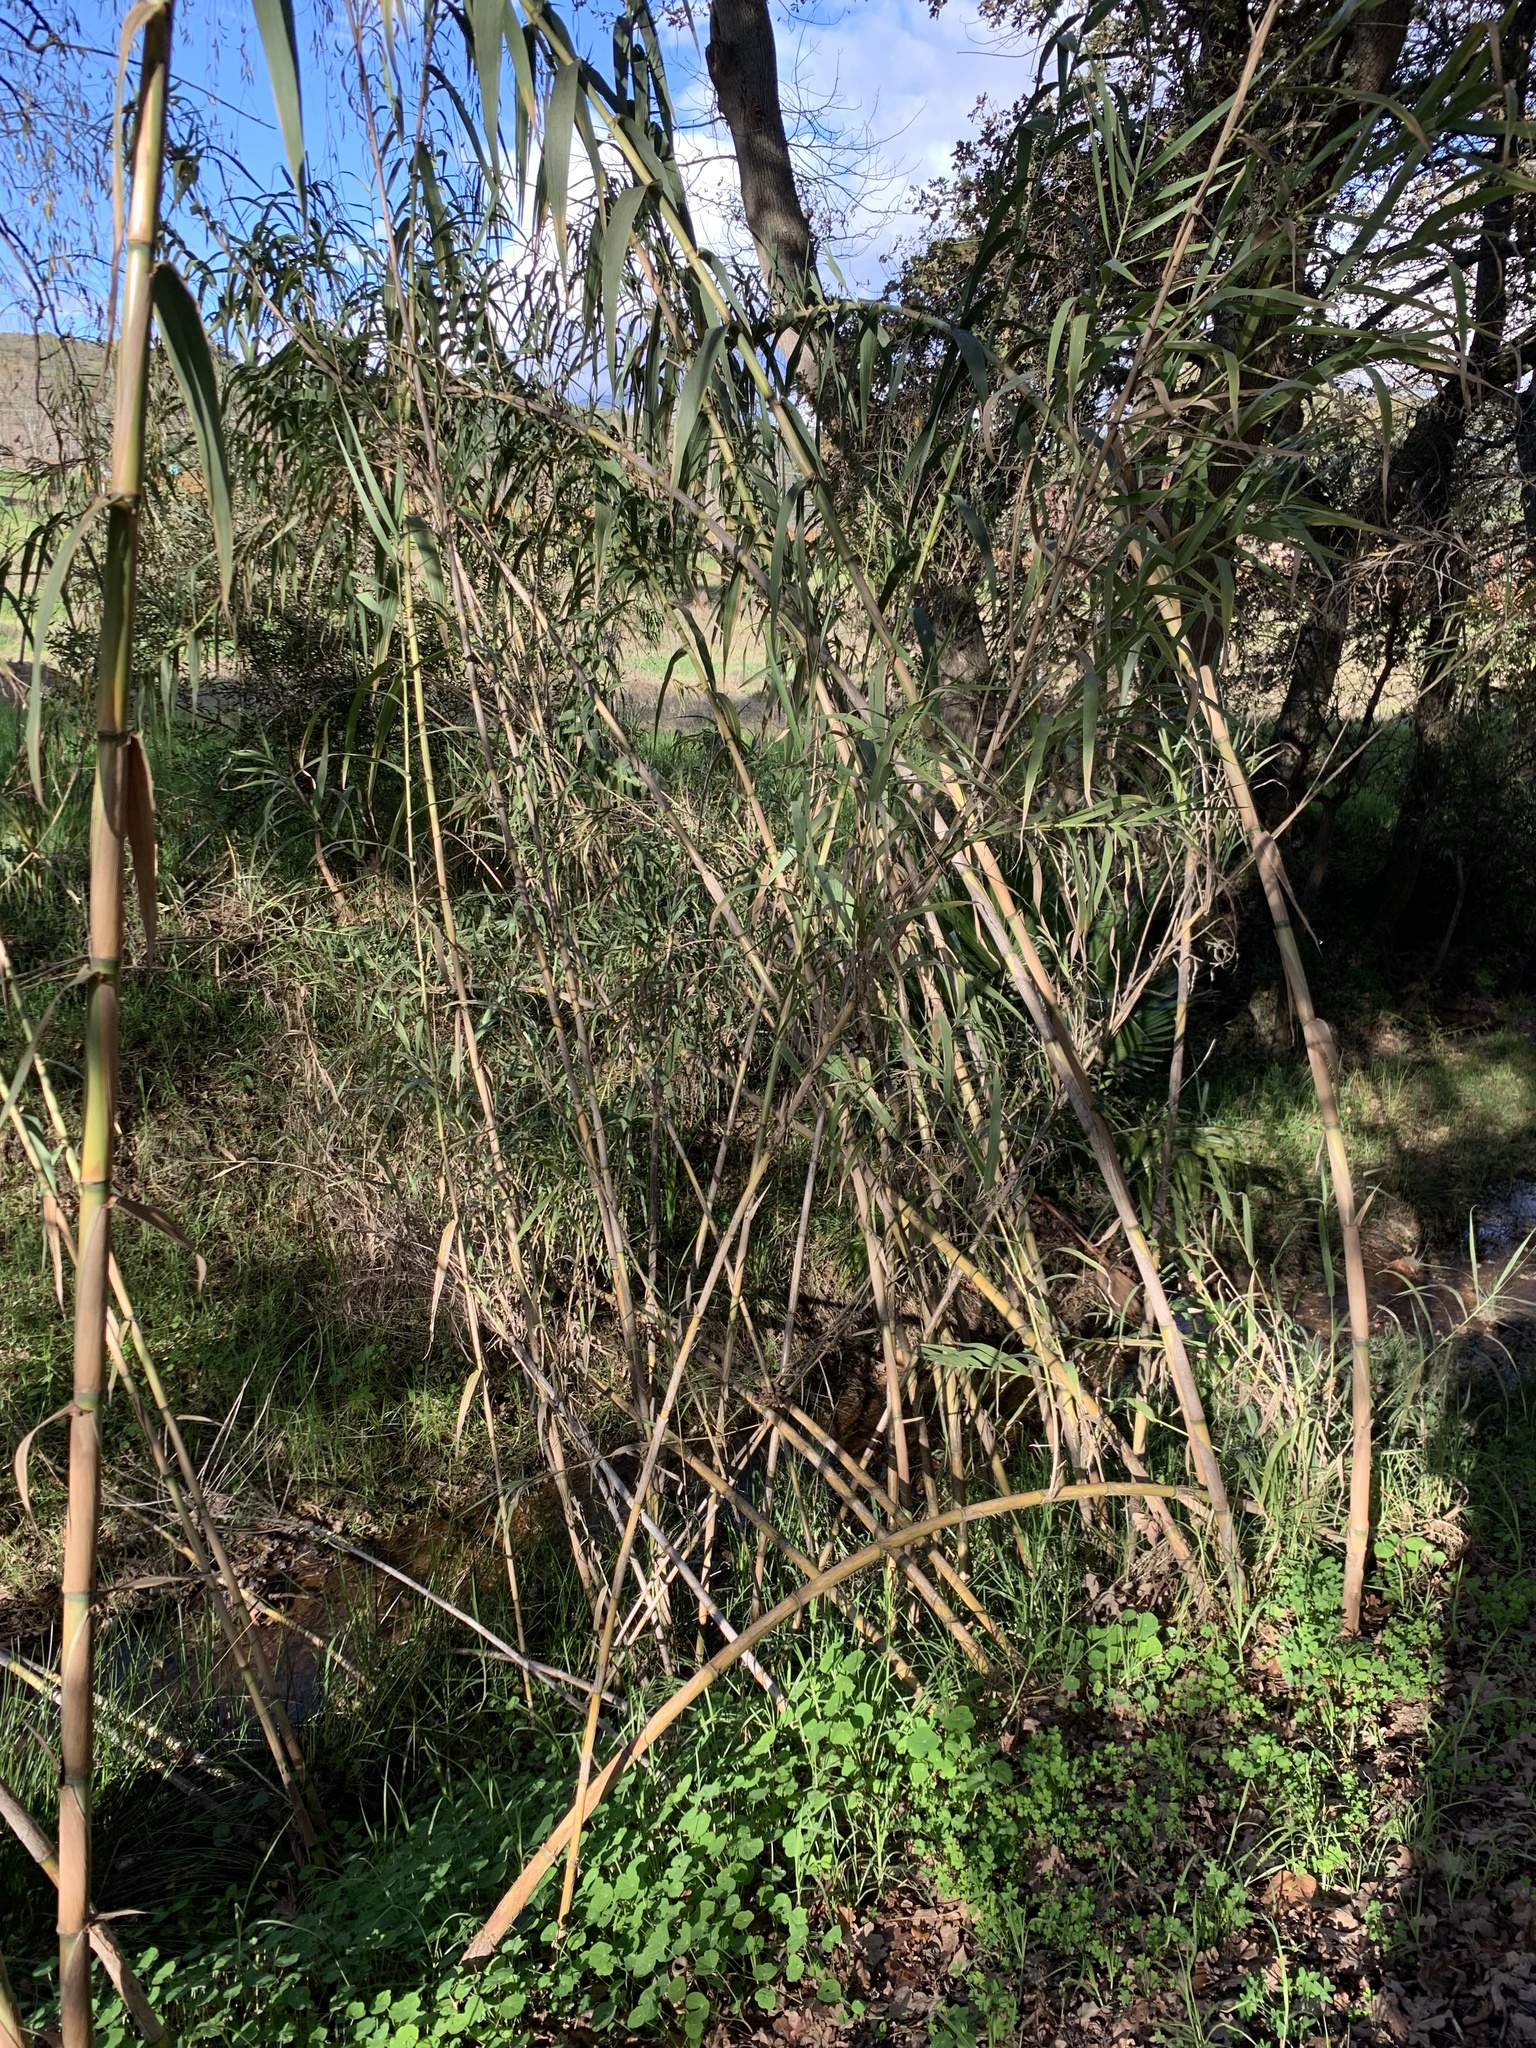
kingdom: Plantae
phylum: Tracheophyta
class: Liliopsida
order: Poales
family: Poaceae
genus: Arundo
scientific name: Arundo donax
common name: Giant reed
